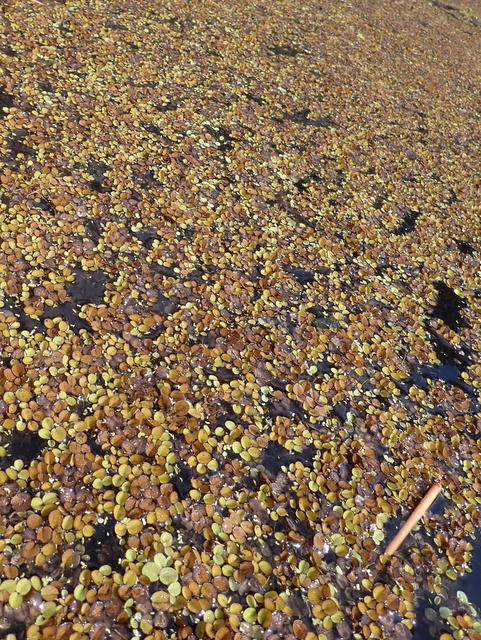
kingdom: Plantae
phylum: Tracheophyta
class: Polypodiopsida
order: Salviniales
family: Salviniaceae
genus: Salvinia
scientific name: Salvinia minima
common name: Water spangles
